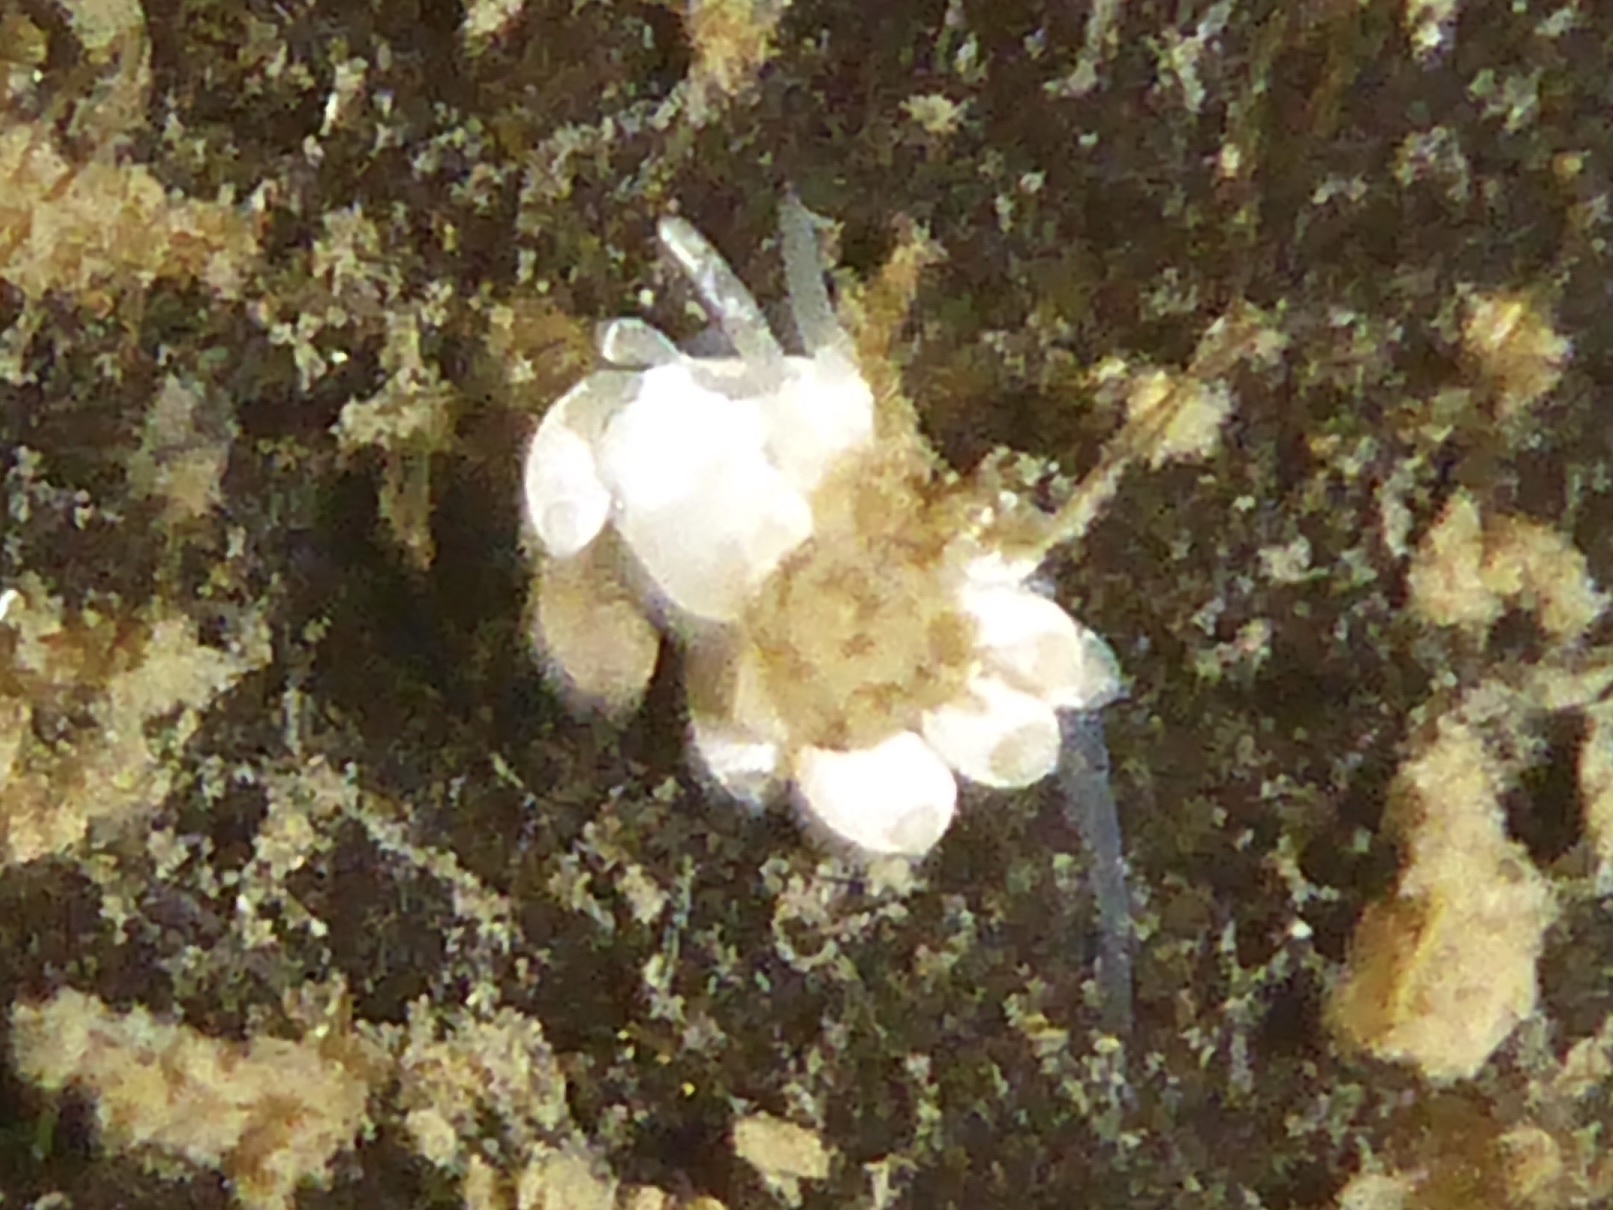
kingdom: Animalia
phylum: Mollusca
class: Gastropoda
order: Nudibranchia
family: Trinchesiidae
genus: Trinchesia
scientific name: Trinchesia albocrusta
